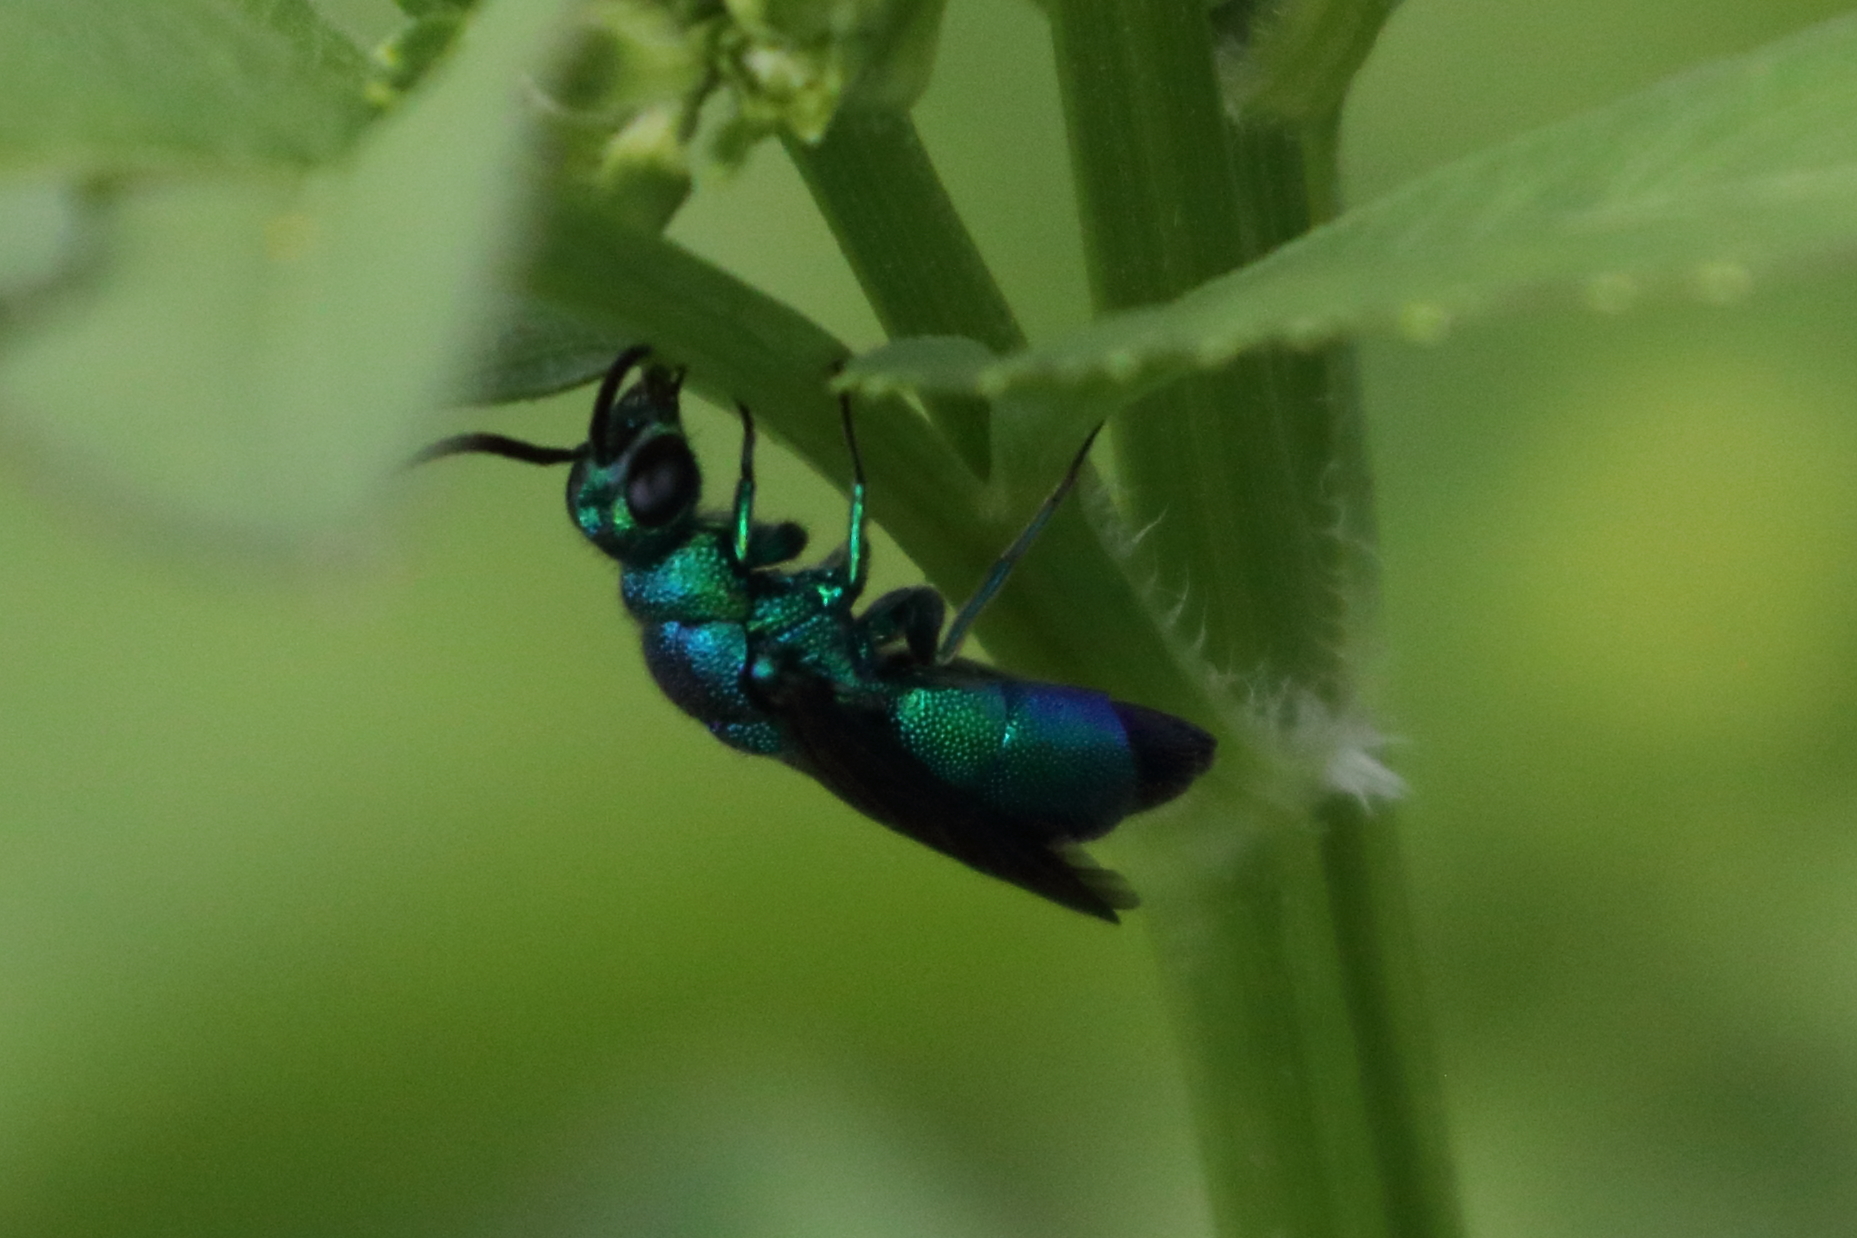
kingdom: Animalia
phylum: Arthropoda
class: Insecta
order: Hymenoptera
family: Chrysididae
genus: Chrysis
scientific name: Chrysis angolensis
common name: Cuckoo wasp
